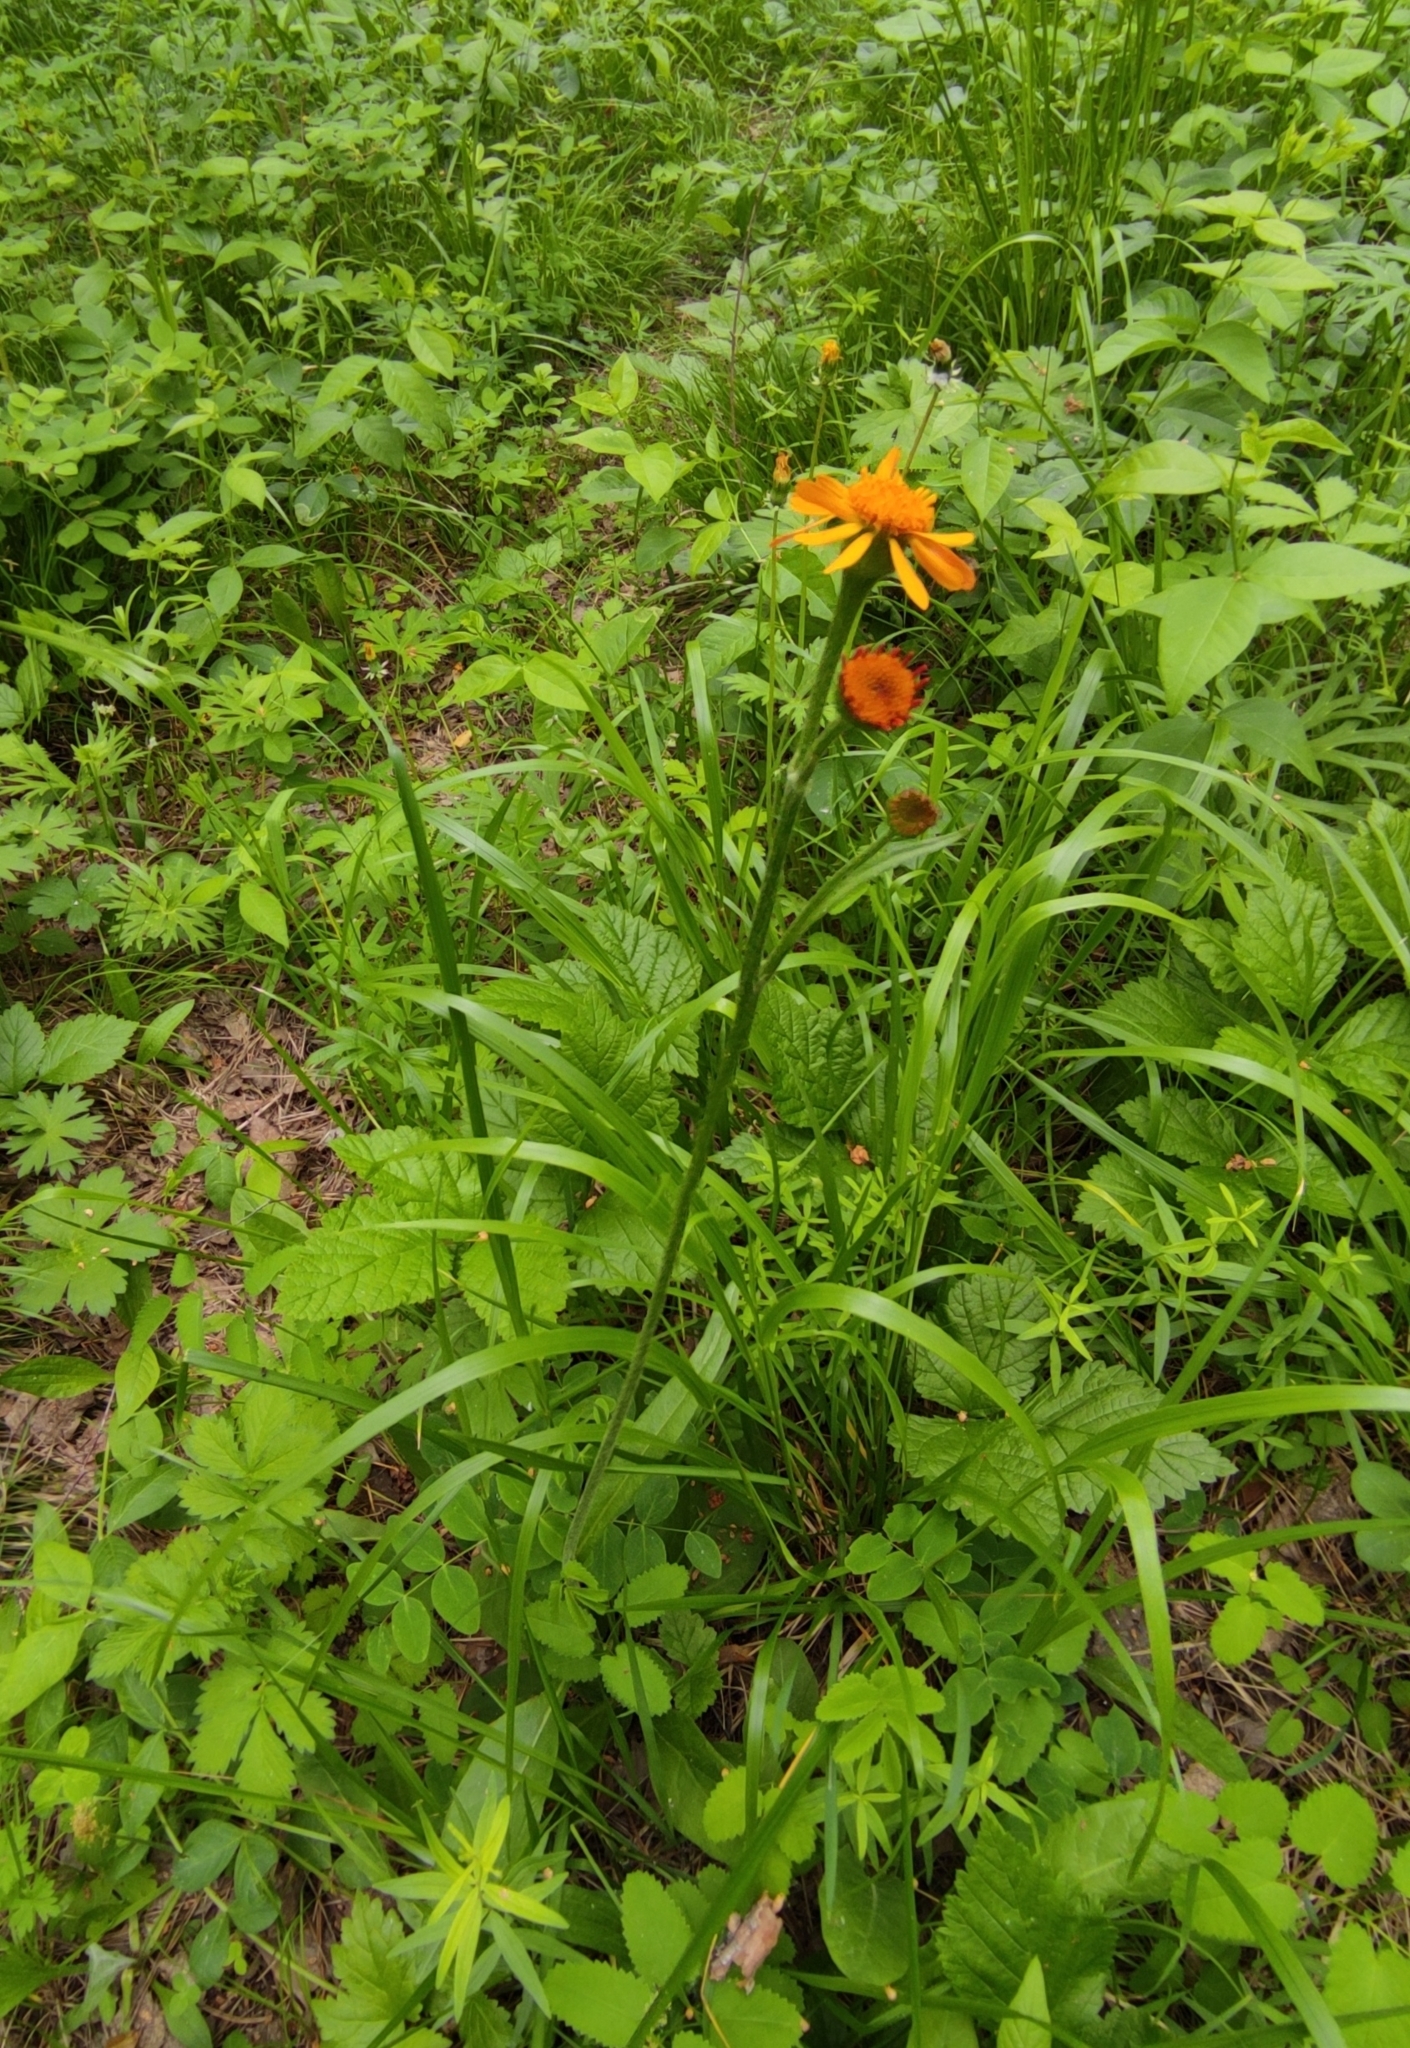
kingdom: Plantae
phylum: Tracheophyta
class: Magnoliopsida
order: Asterales
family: Asteraceae
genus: Tephroseris
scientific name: Tephroseris porphyrantha
